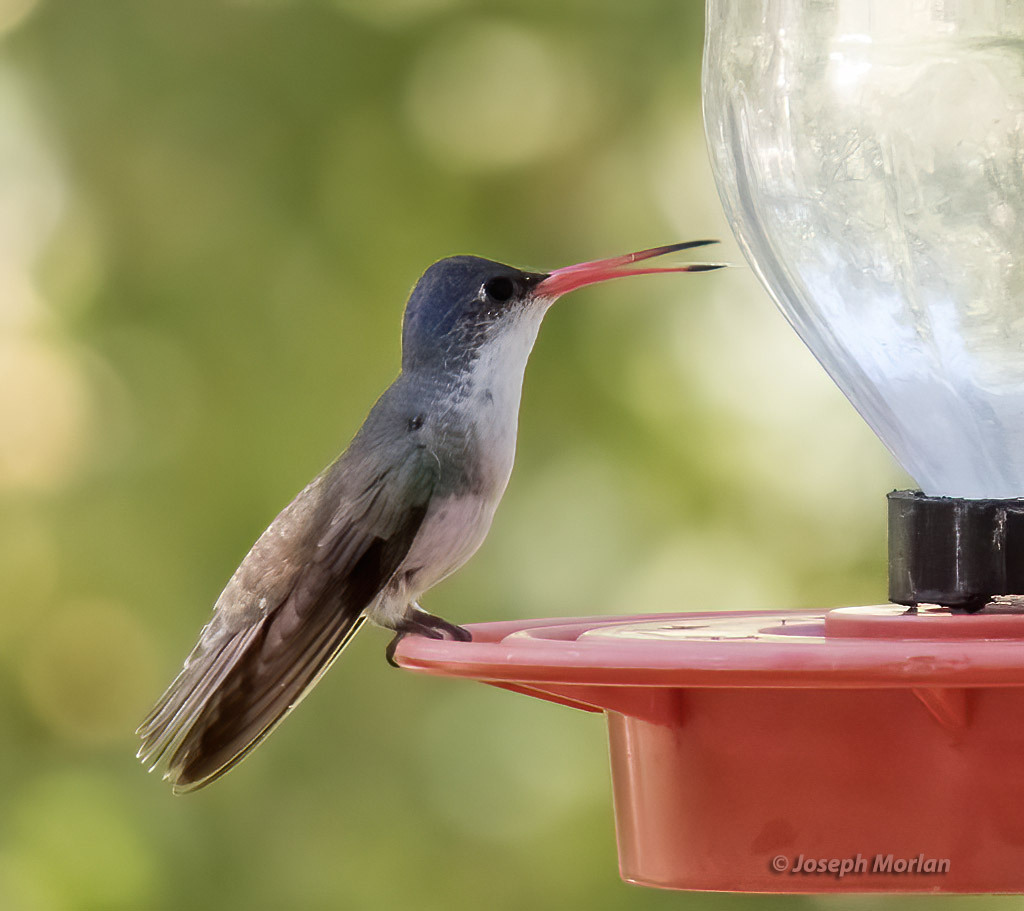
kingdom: Animalia
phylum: Chordata
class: Aves
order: Apodiformes
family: Trochilidae
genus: Leucolia
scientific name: Leucolia violiceps
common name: Violet-crowned hummingbird
